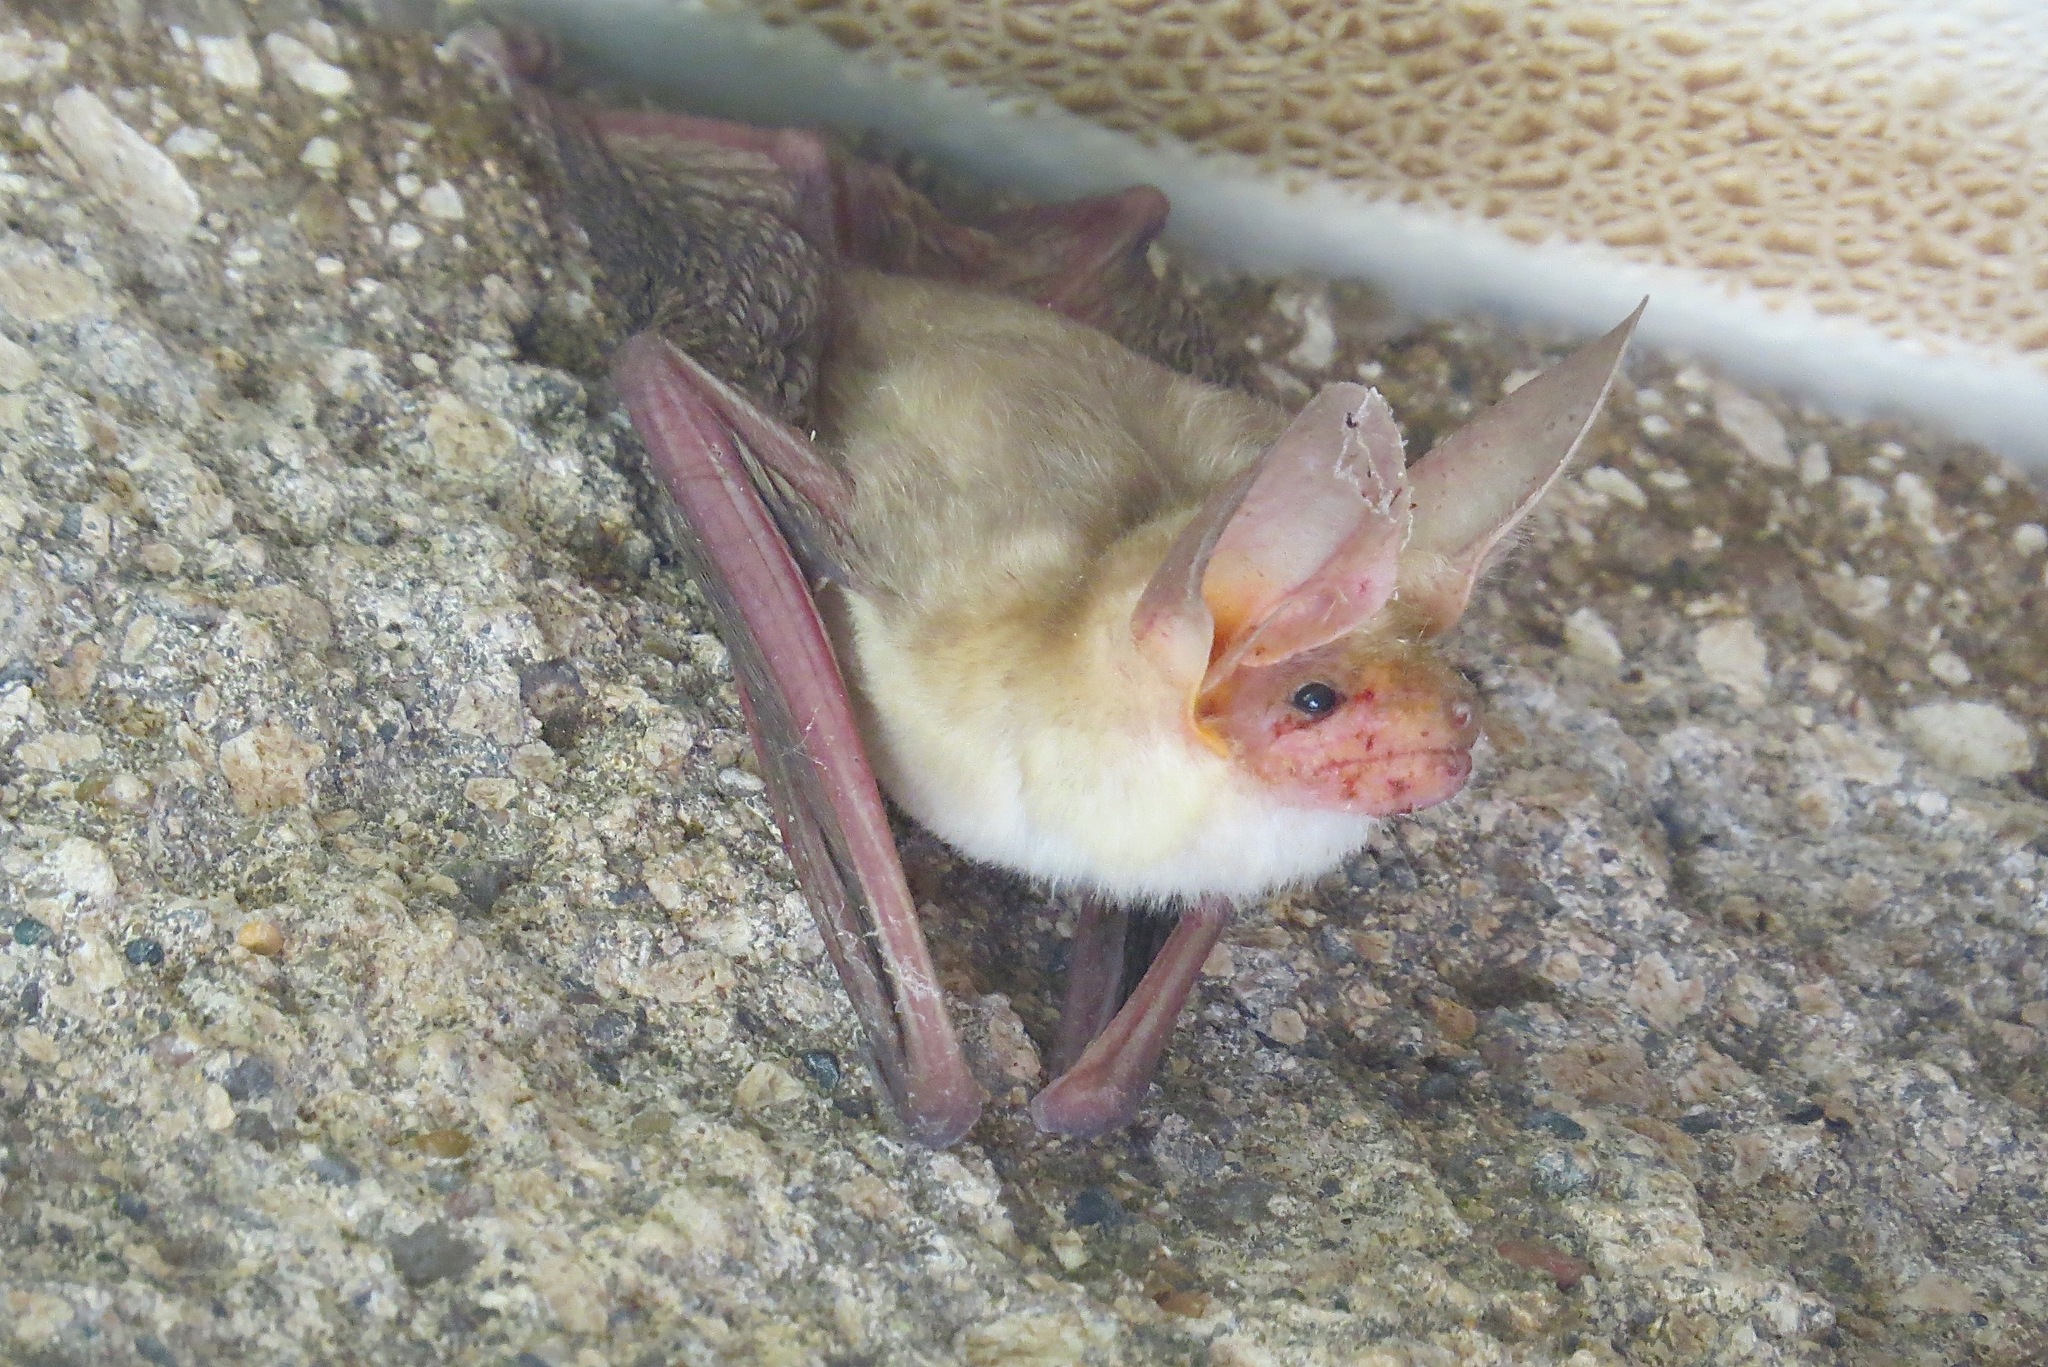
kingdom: Animalia
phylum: Chordata
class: Mammalia
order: Chiroptera
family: Vespertilionidae
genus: Antrozous
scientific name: Antrozous pallidus
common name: Pallid bat
